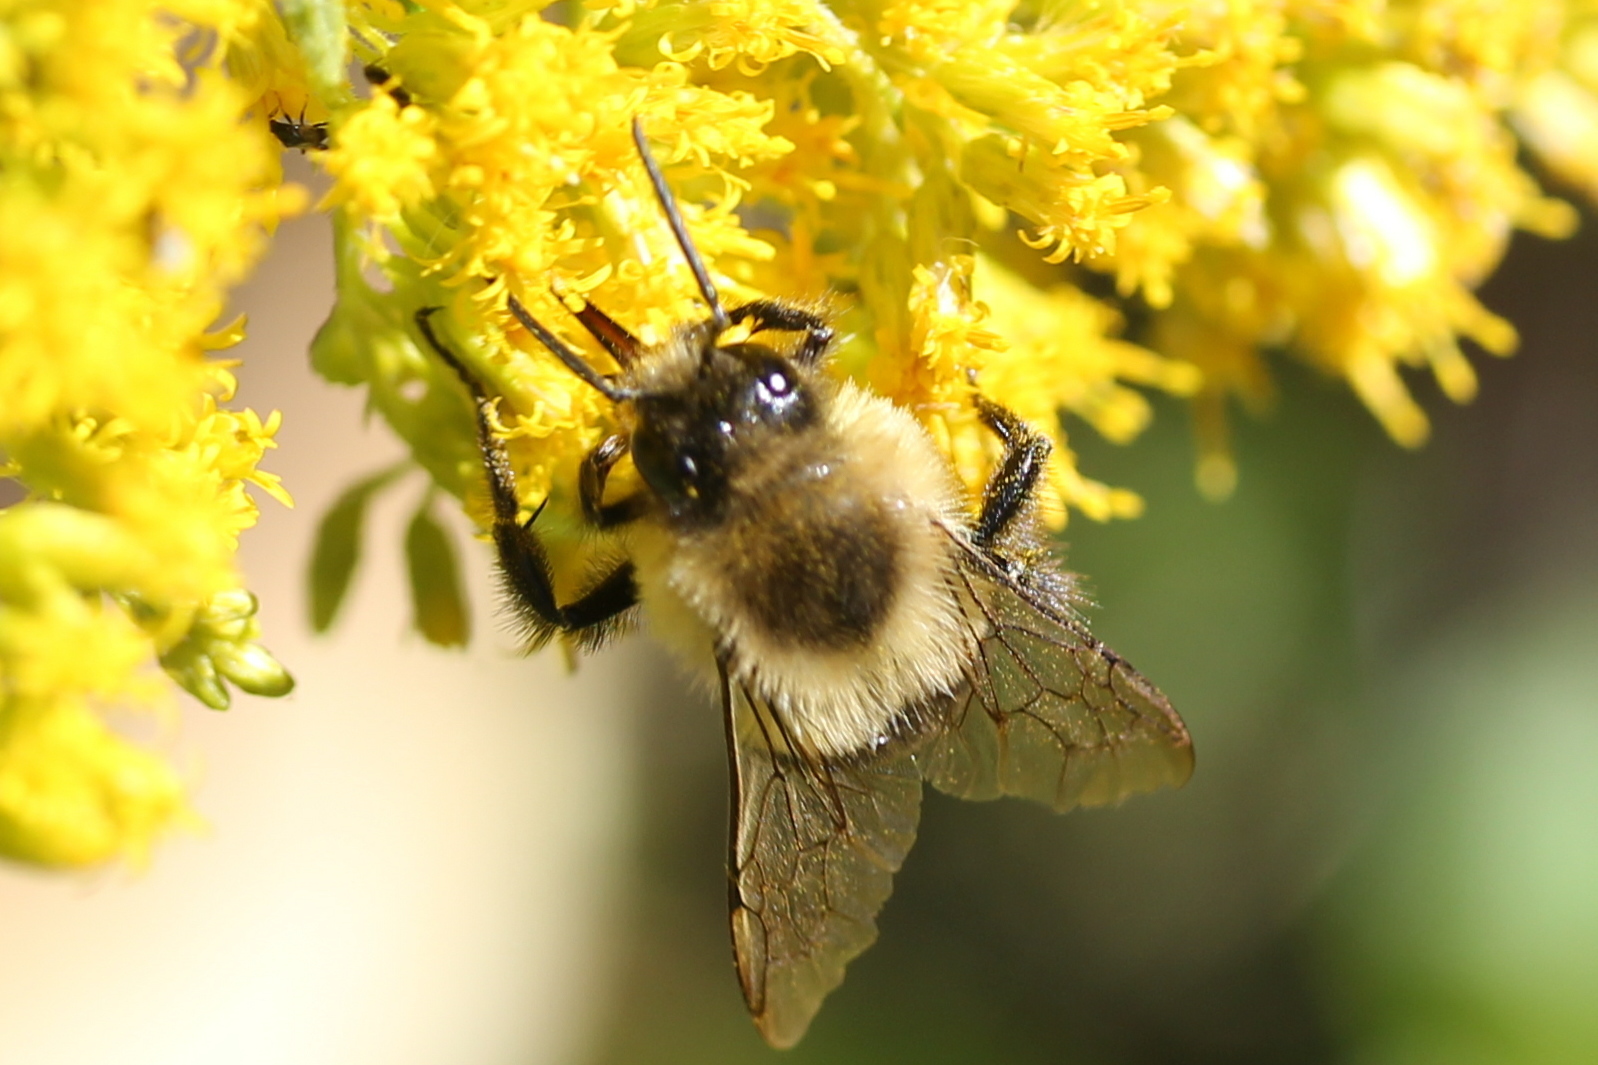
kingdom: Animalia
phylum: Arthropoda
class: Insecta
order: Hymenoptera
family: Apidae
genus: Bombus
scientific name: Bombus impatiens
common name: Common eastern bumble bee
